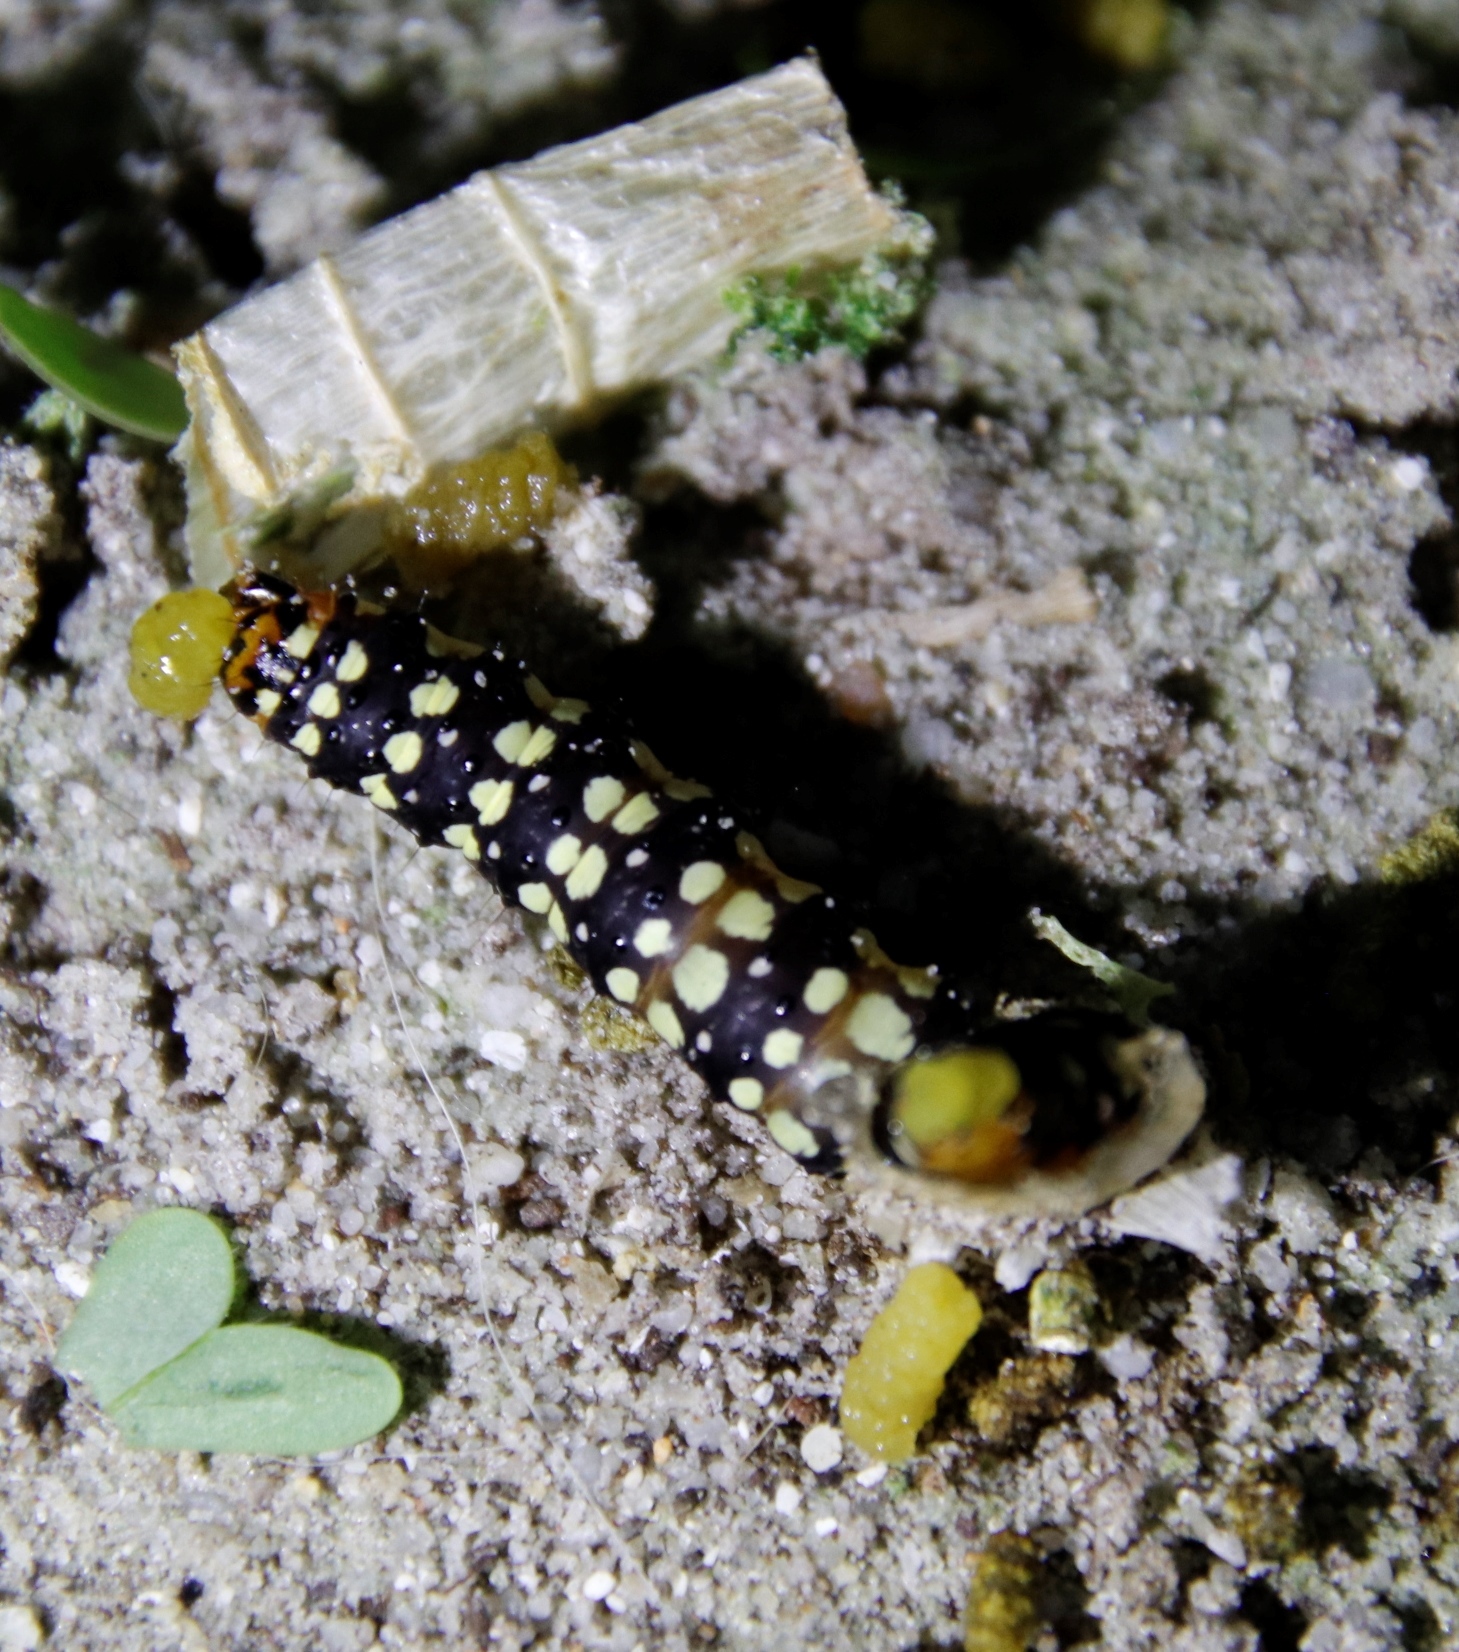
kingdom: Animalia
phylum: Arthropoda
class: Insecta
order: Lepidoptera
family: Noctuidae
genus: Brithys
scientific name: Brithys crini
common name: Kew arches
